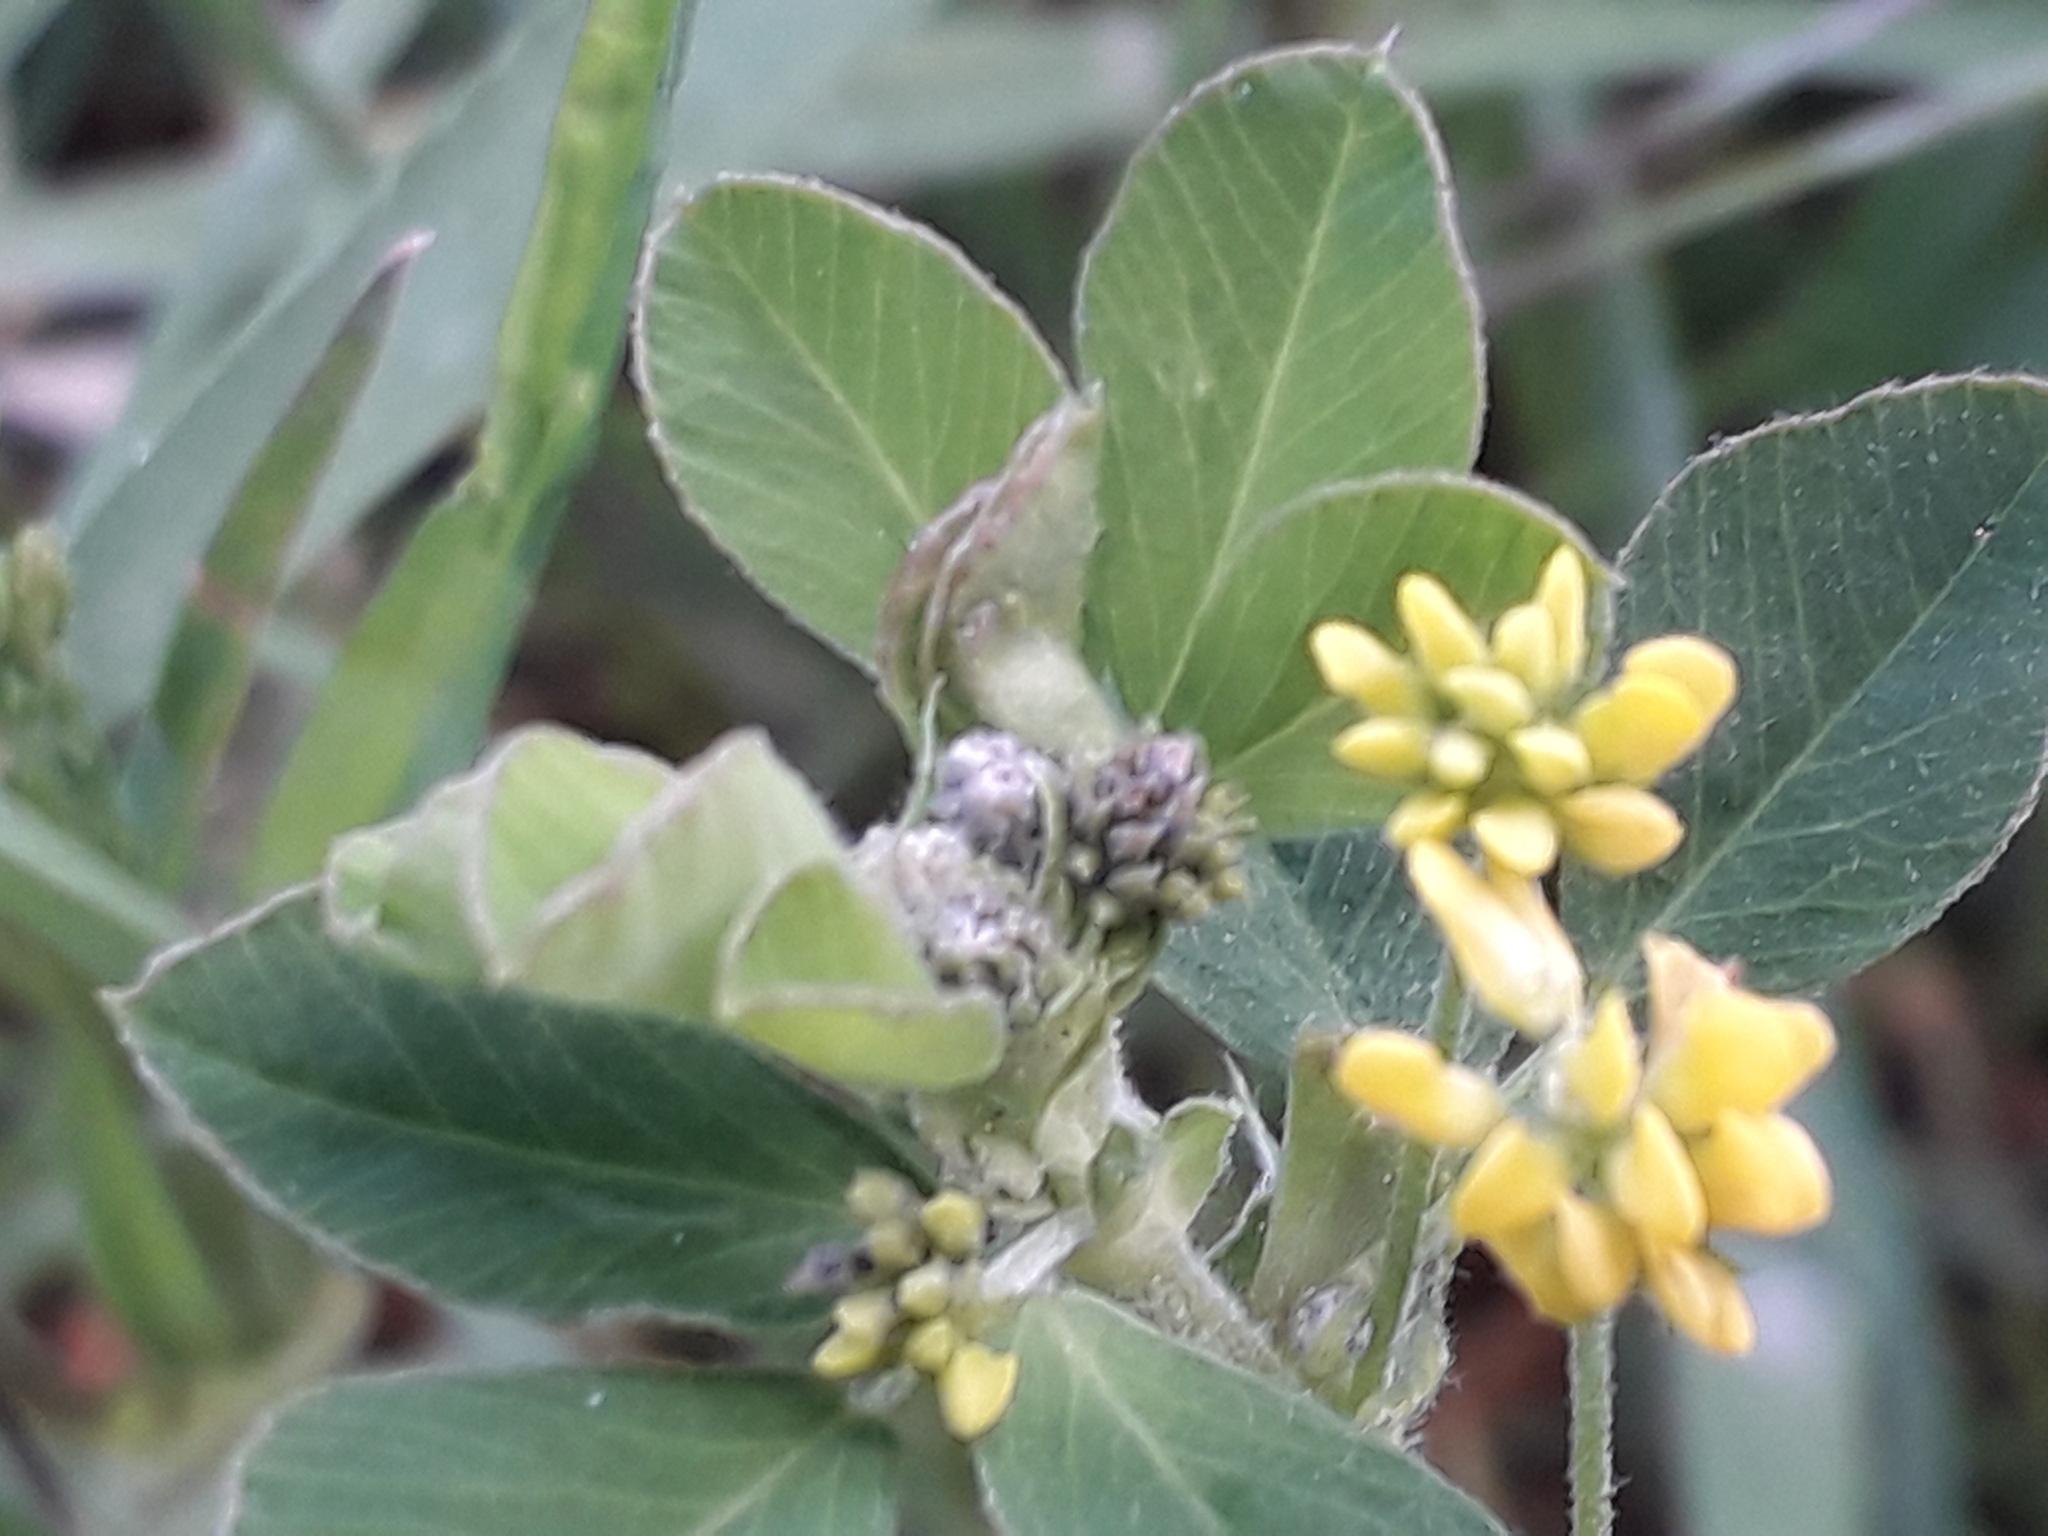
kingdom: Plantae
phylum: Tracheophyta
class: Magnoliopsida
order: Fabales
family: Fabaceae
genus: Medicago
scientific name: Medicago lupulina
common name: Black medick
